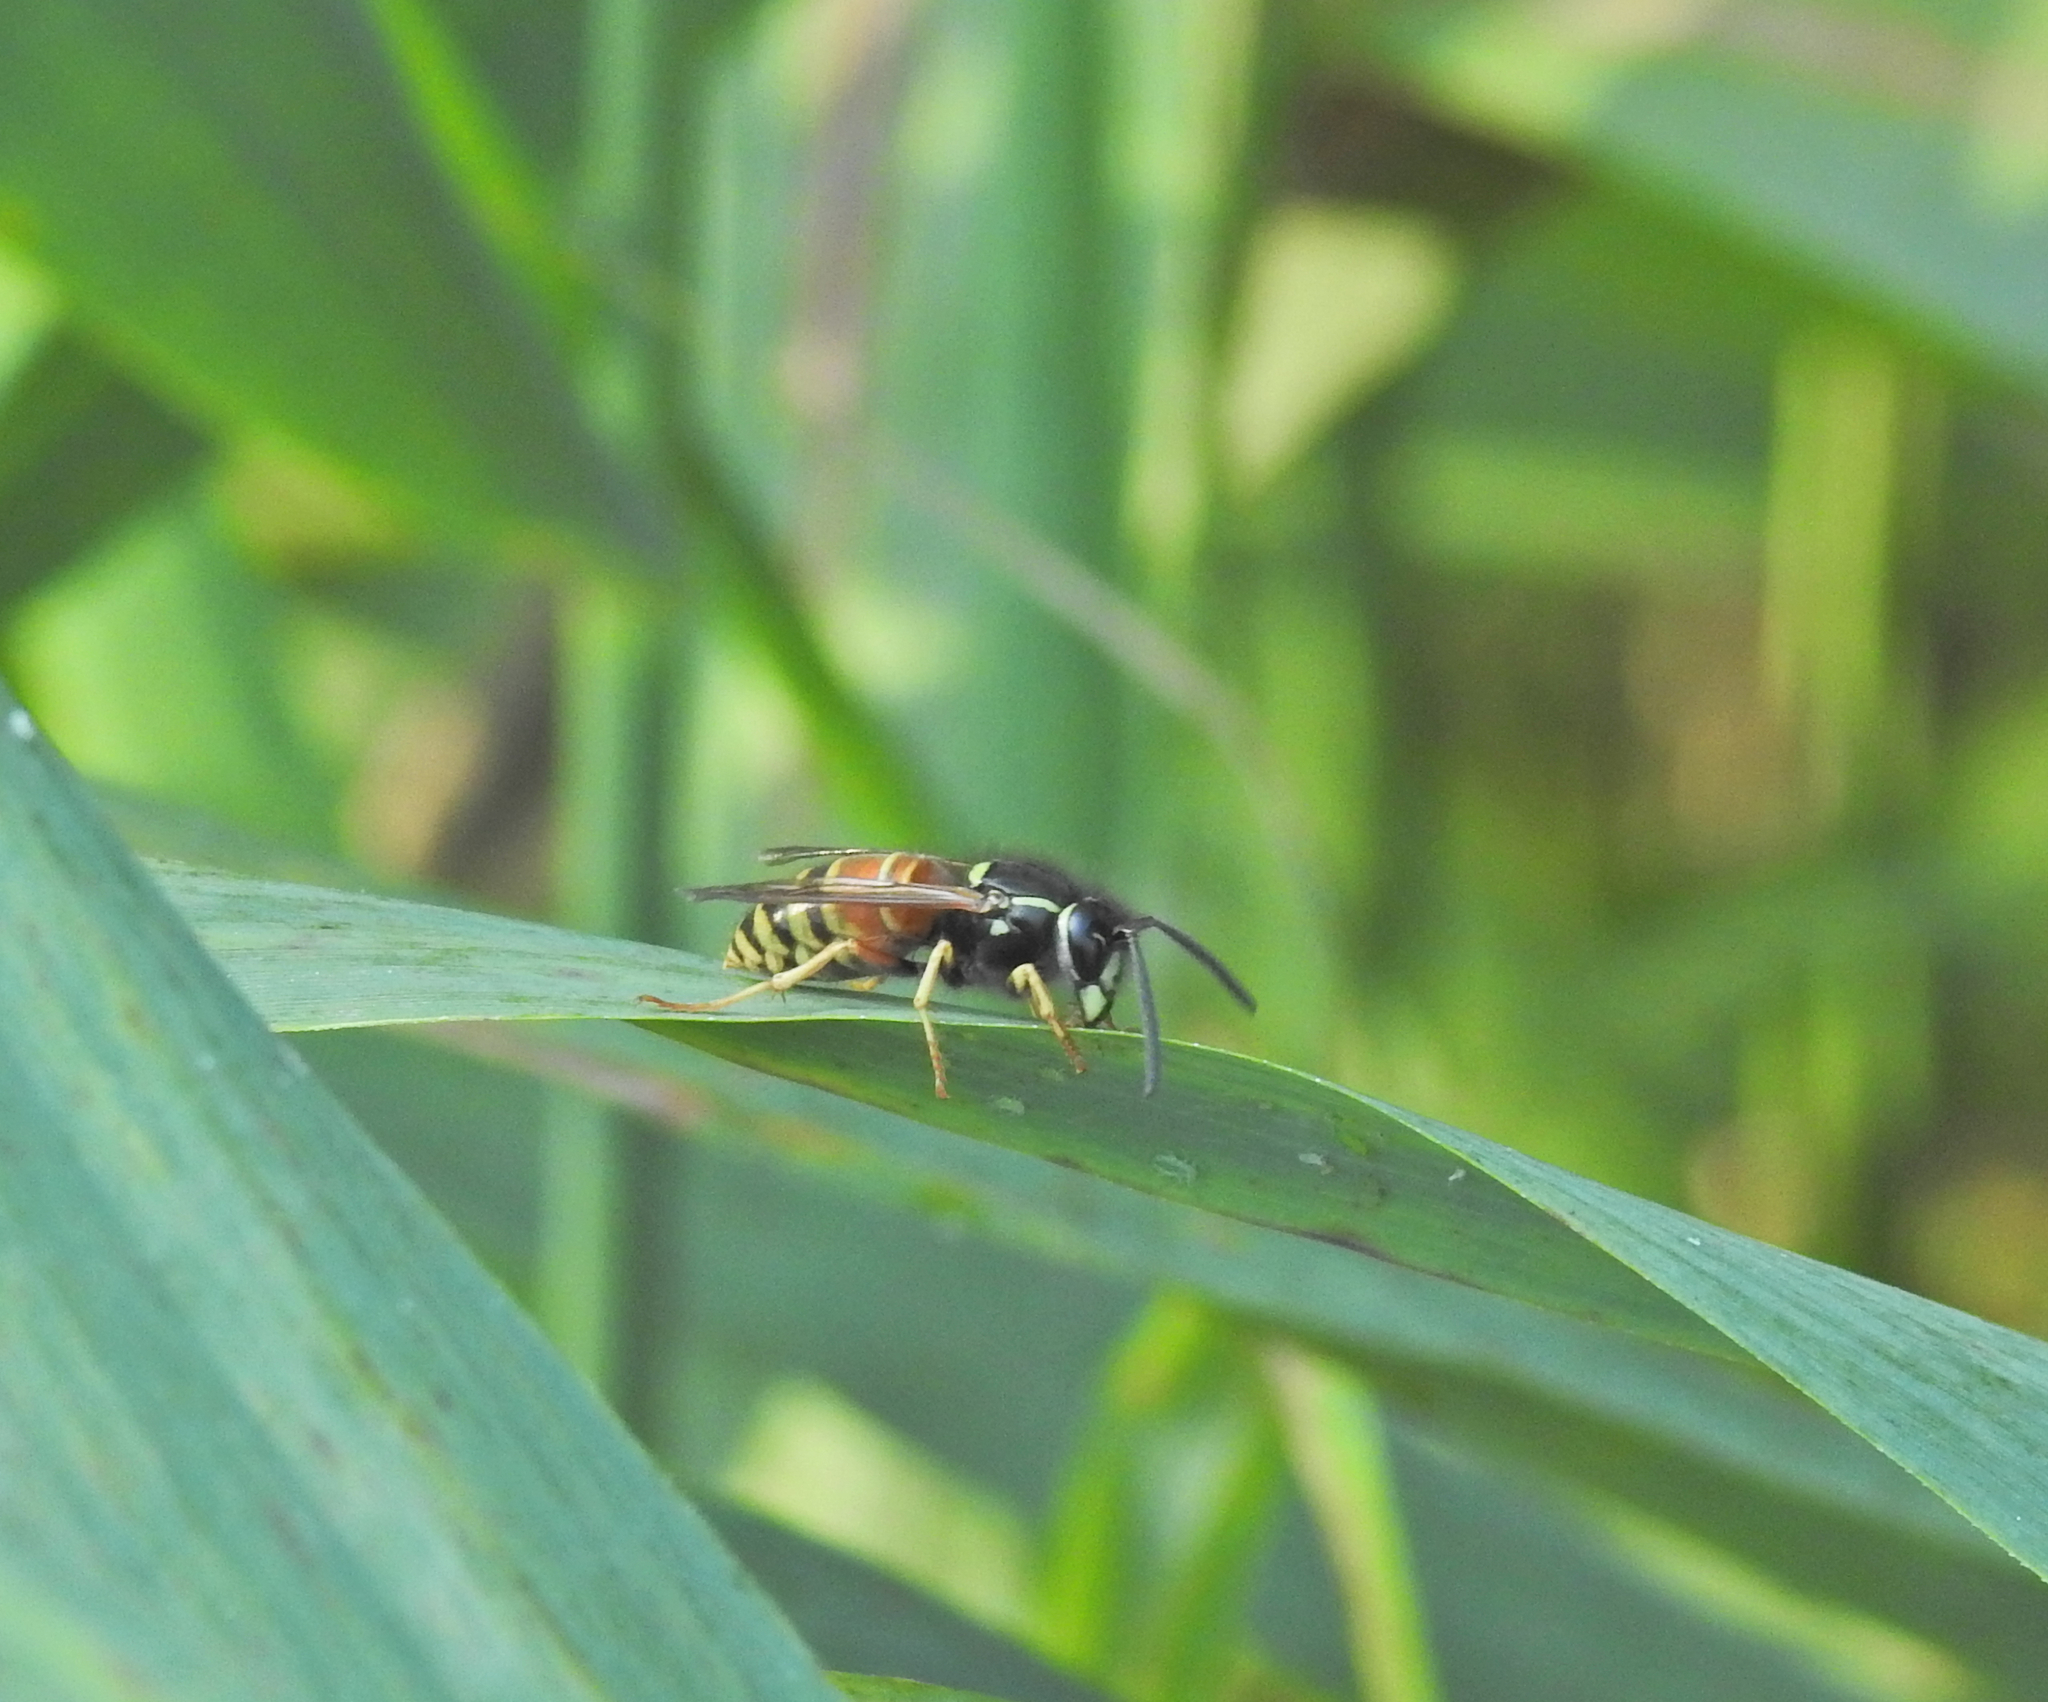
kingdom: Animalia
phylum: Arthropoda
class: Insecta
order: Hymenoptera
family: Vespidae
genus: Vespula
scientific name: Vespula rufa
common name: Red wasp
